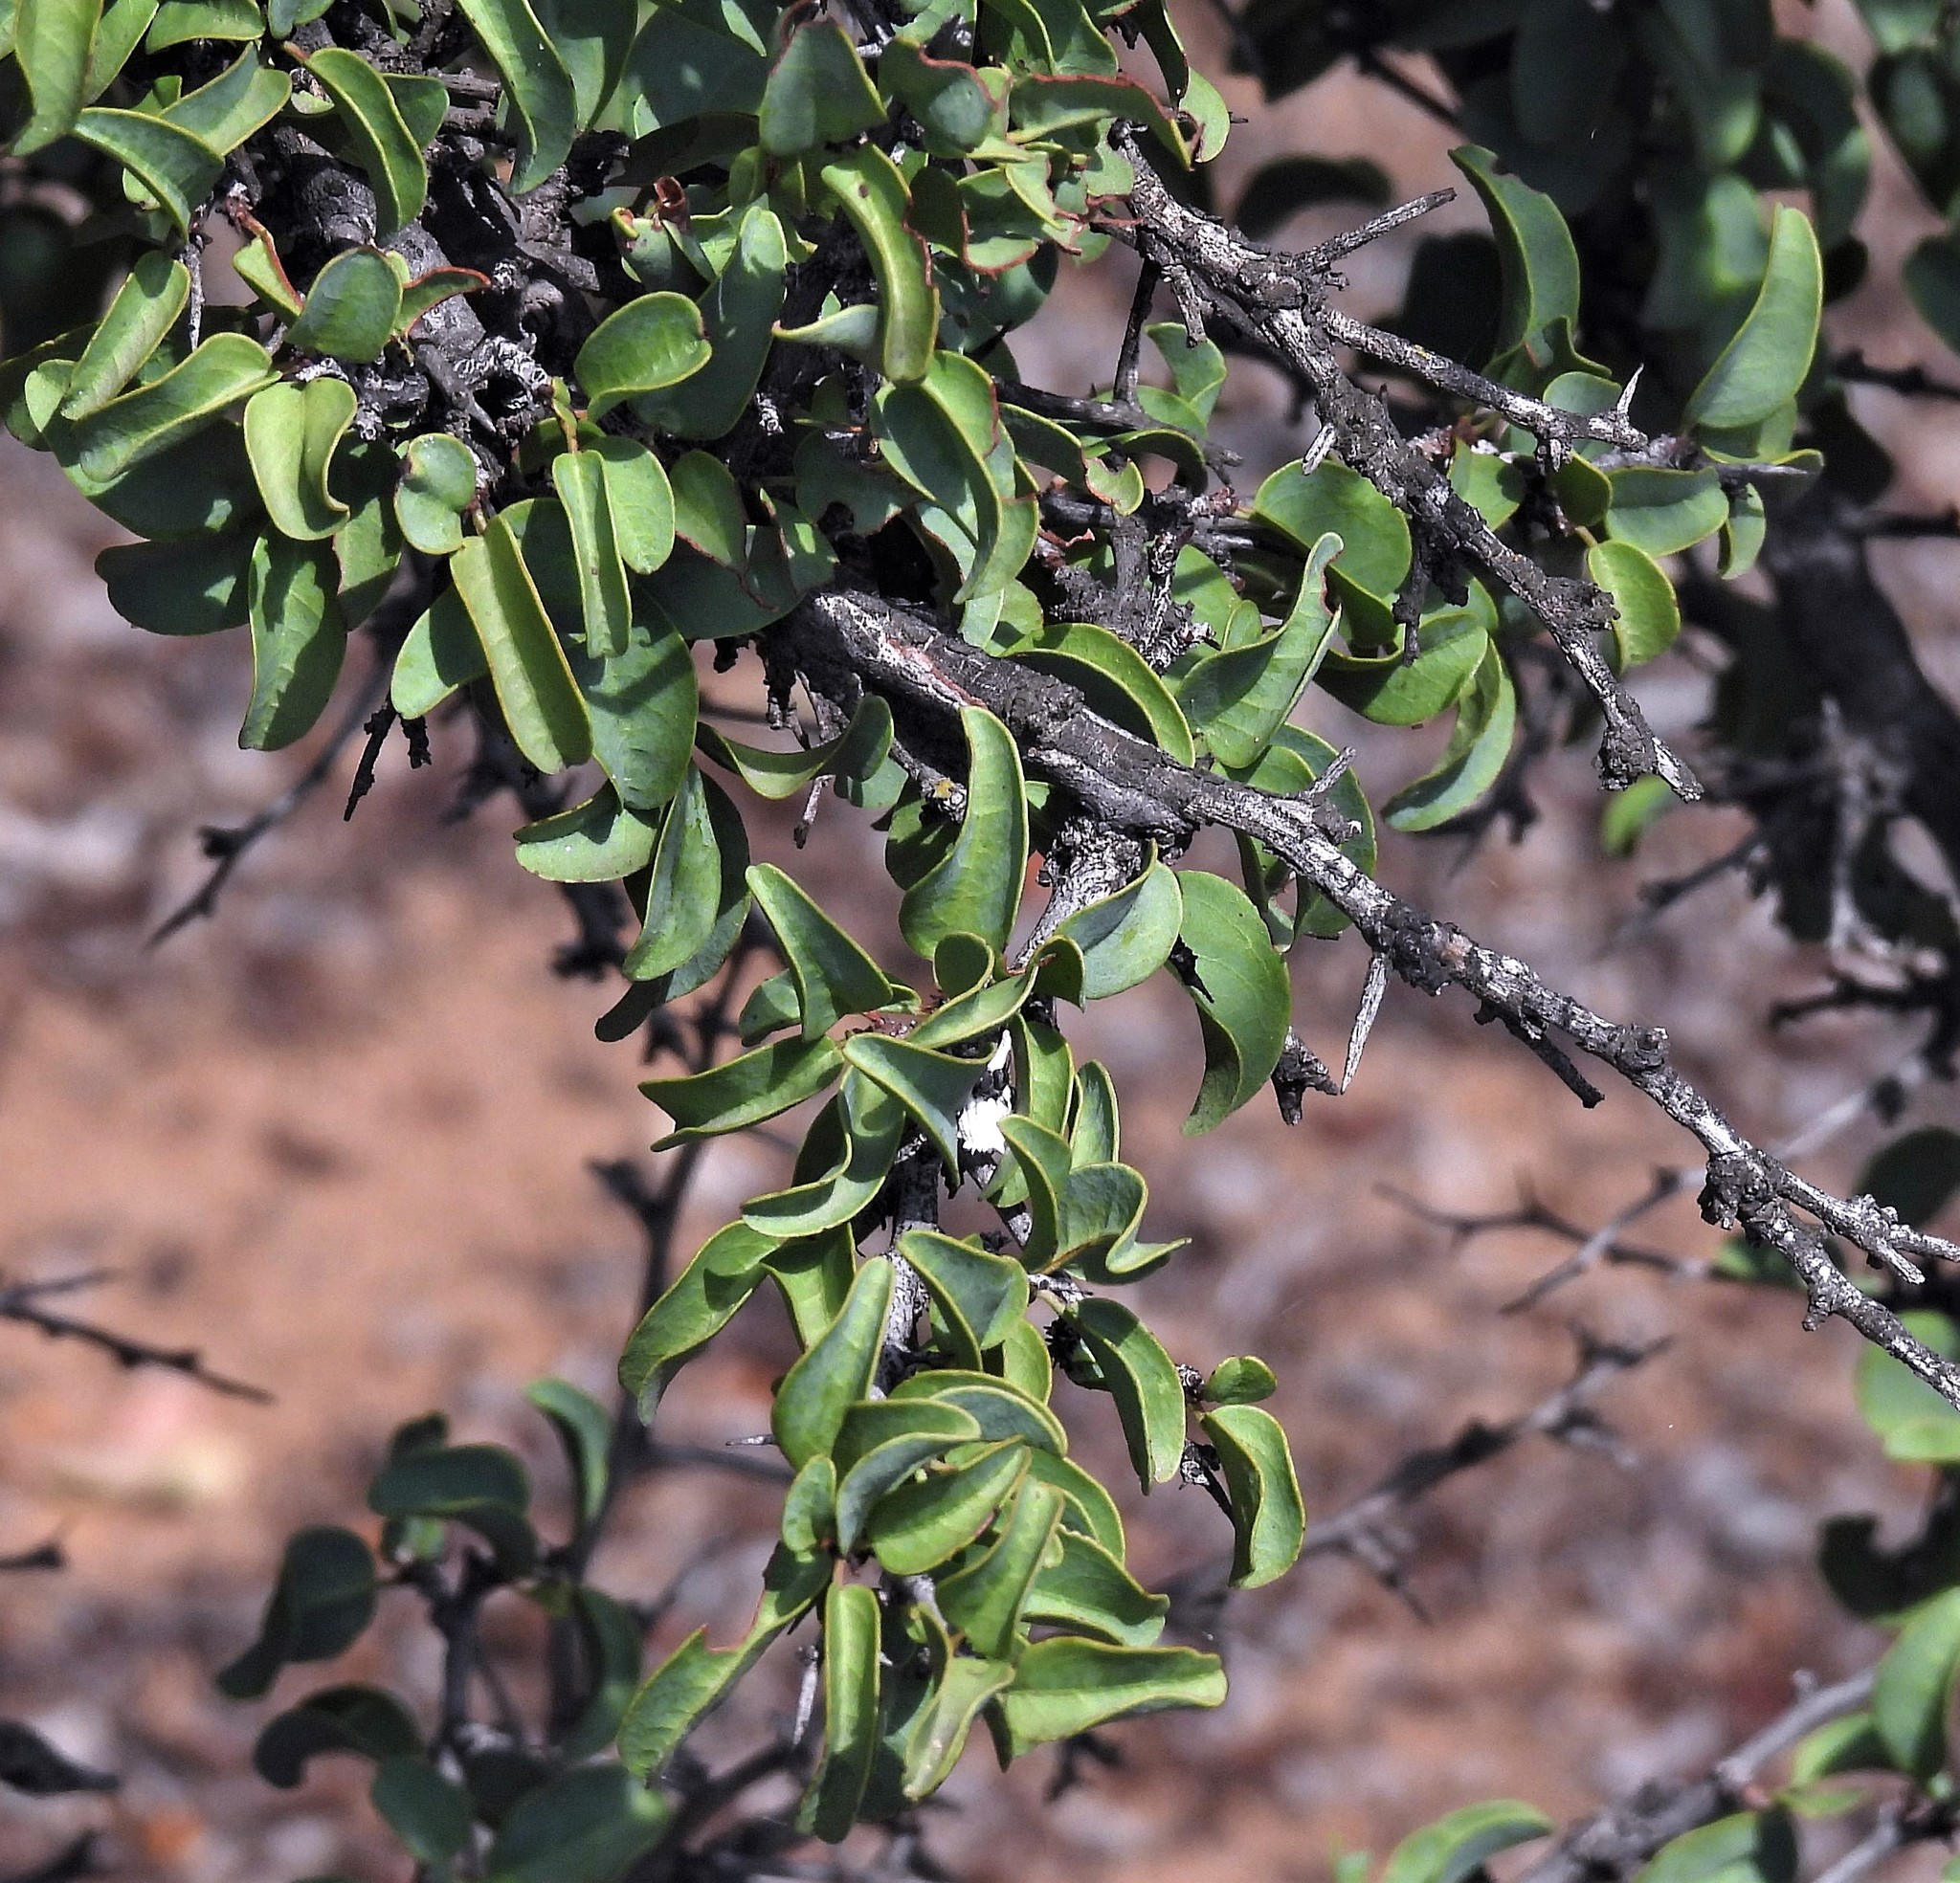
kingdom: Plantae
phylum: Tracheophyta
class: Magnoliopsida
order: Santalales
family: Ximeniaceae
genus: Ximenia
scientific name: Ximenia americana
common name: Tallowwood
